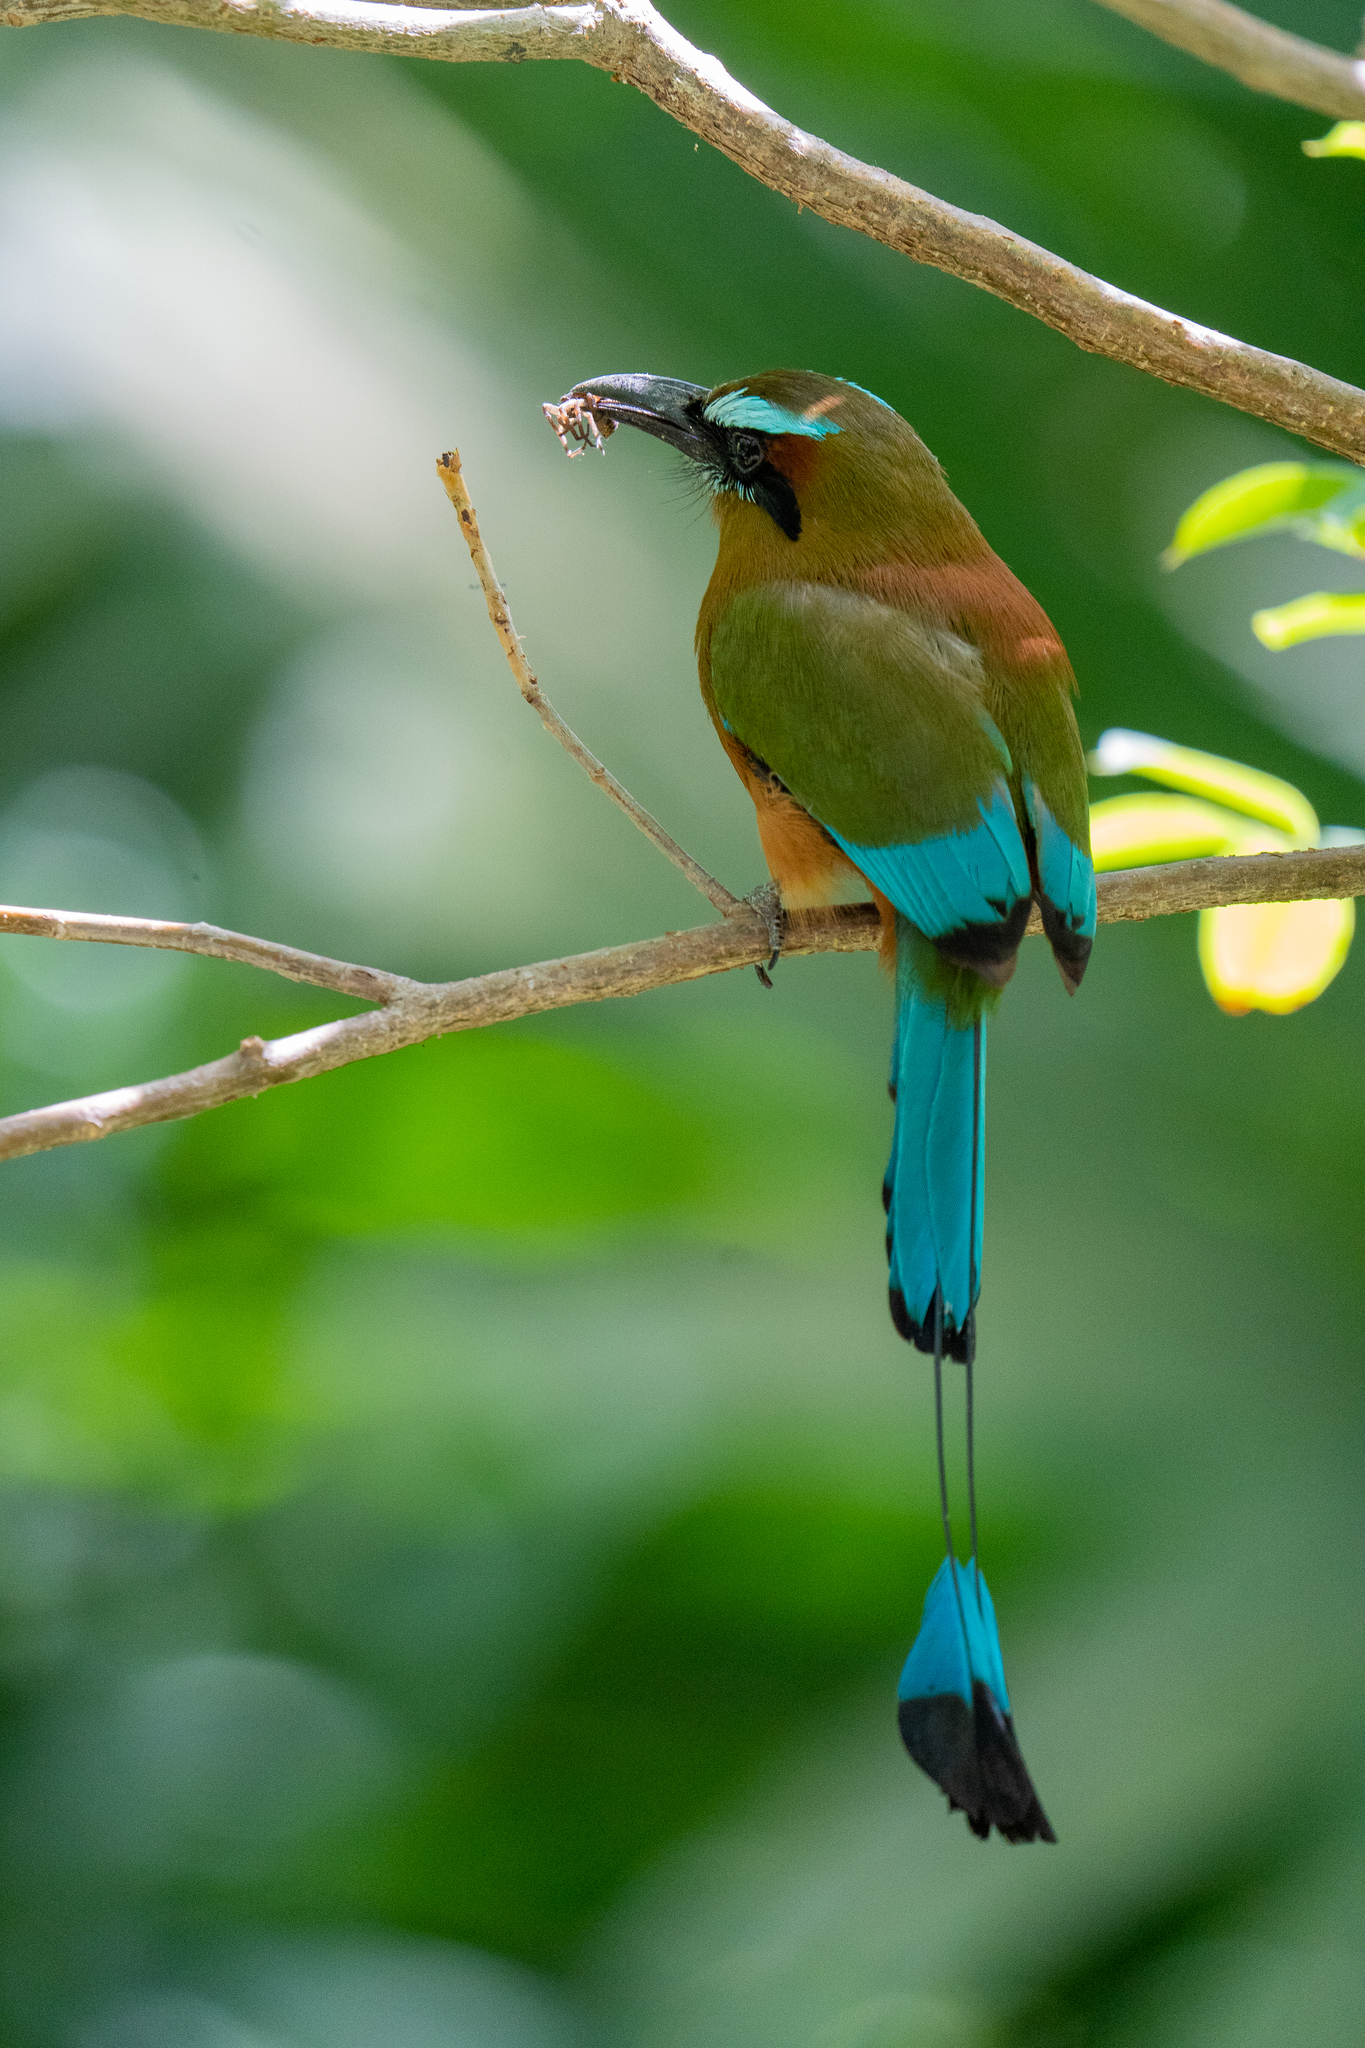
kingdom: Animalia
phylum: Chordata
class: Aves
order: Coraciiformes
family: Momotidae
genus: Eumomota
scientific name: Eumomota superciliosa
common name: Turquoise-browed motmot
